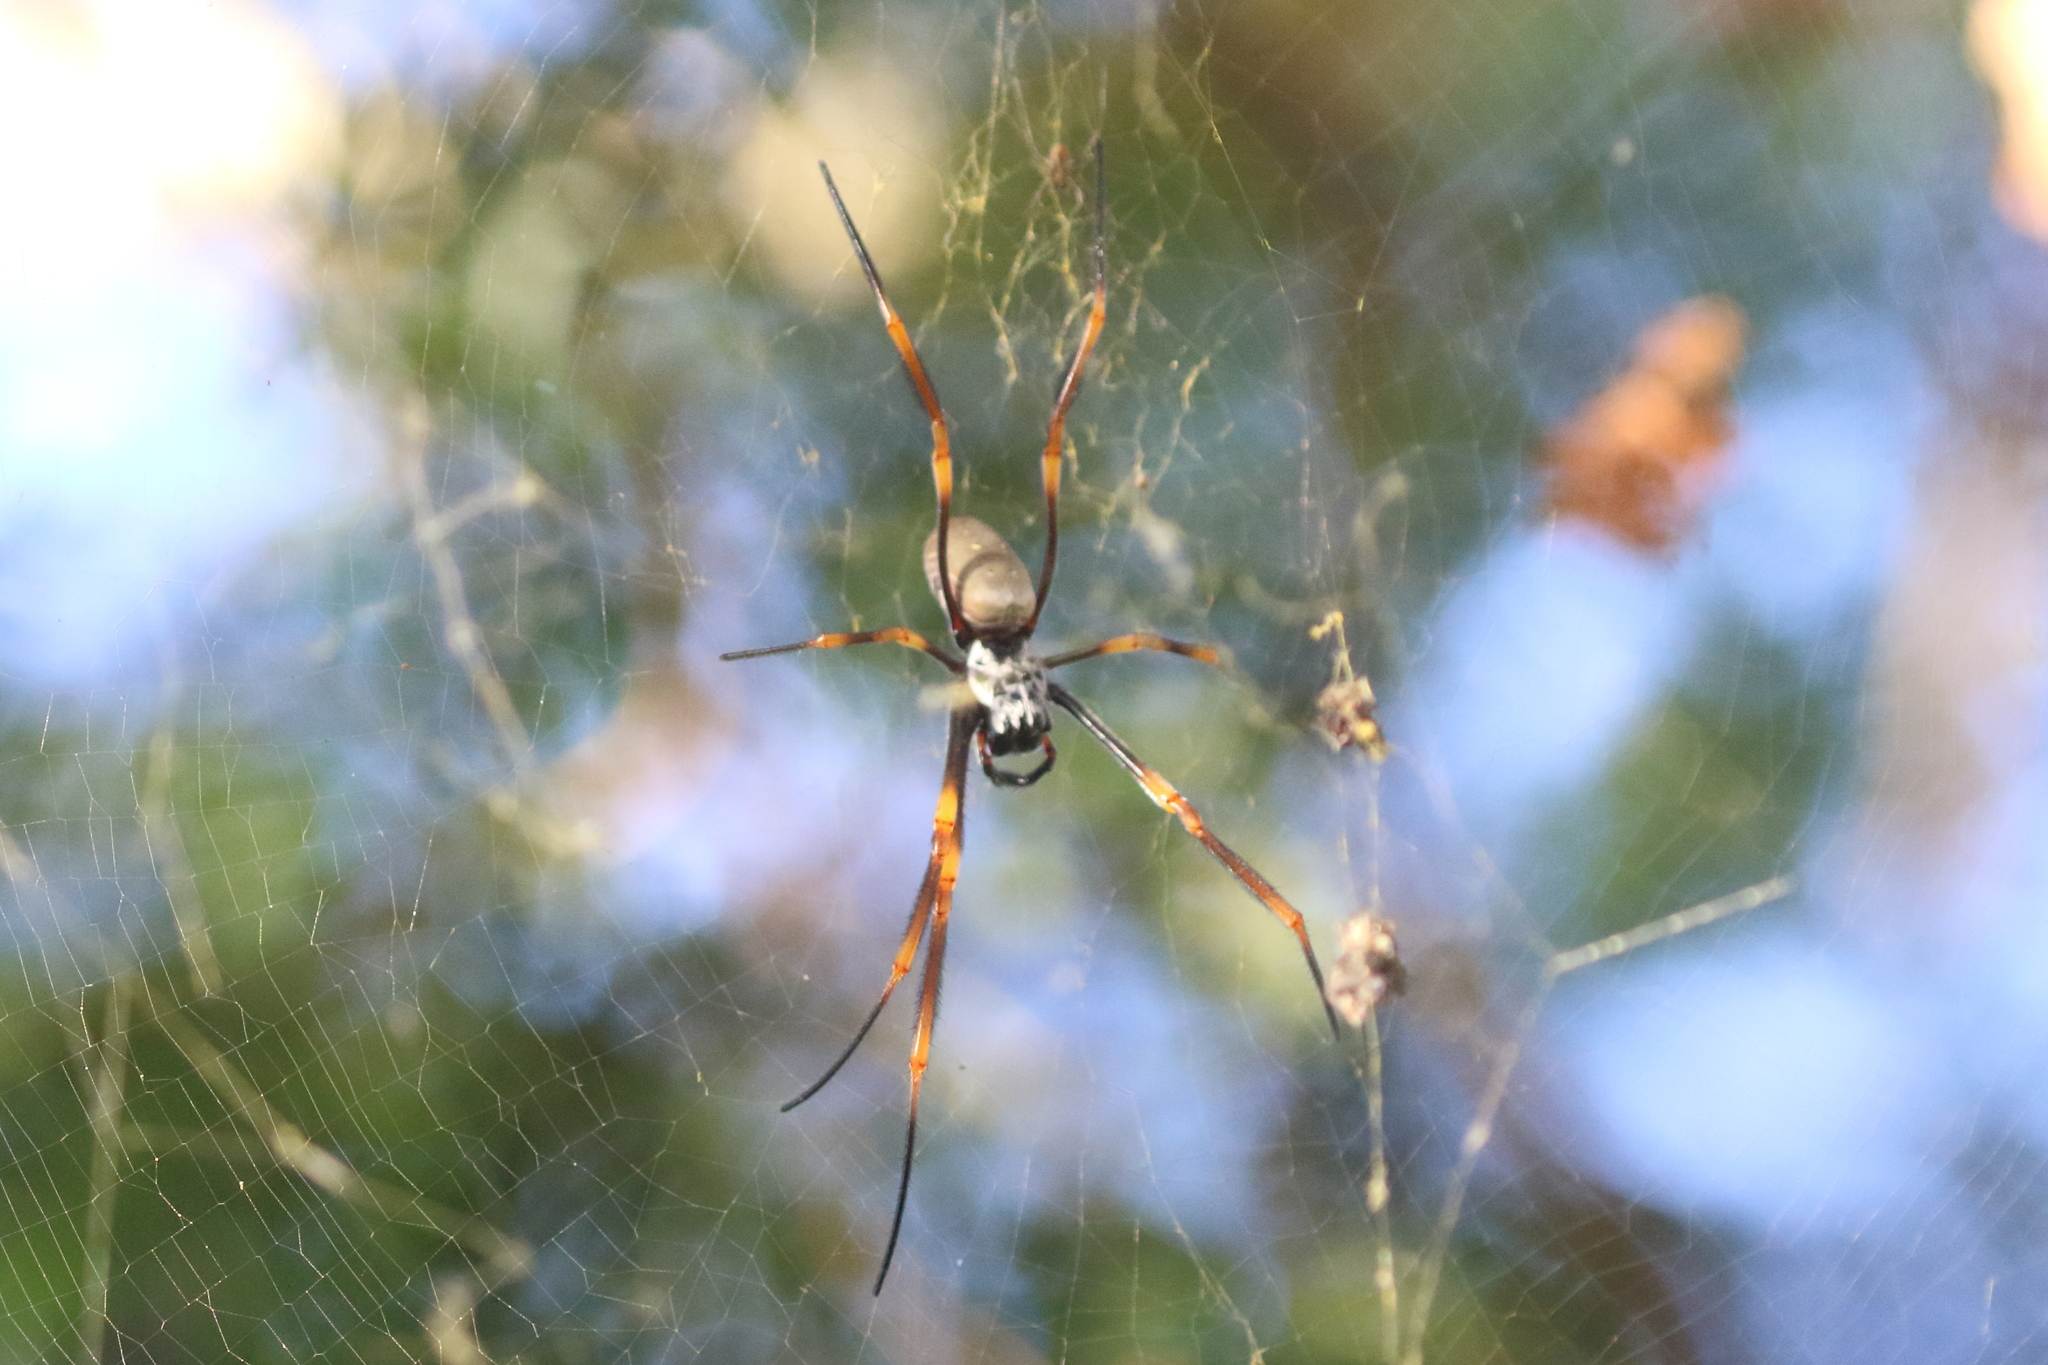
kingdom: Animalia
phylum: Arthropoda
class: Arachnida
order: Araneae
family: Araneidae
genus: Trichonephila
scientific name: Trichonephila plumipes
